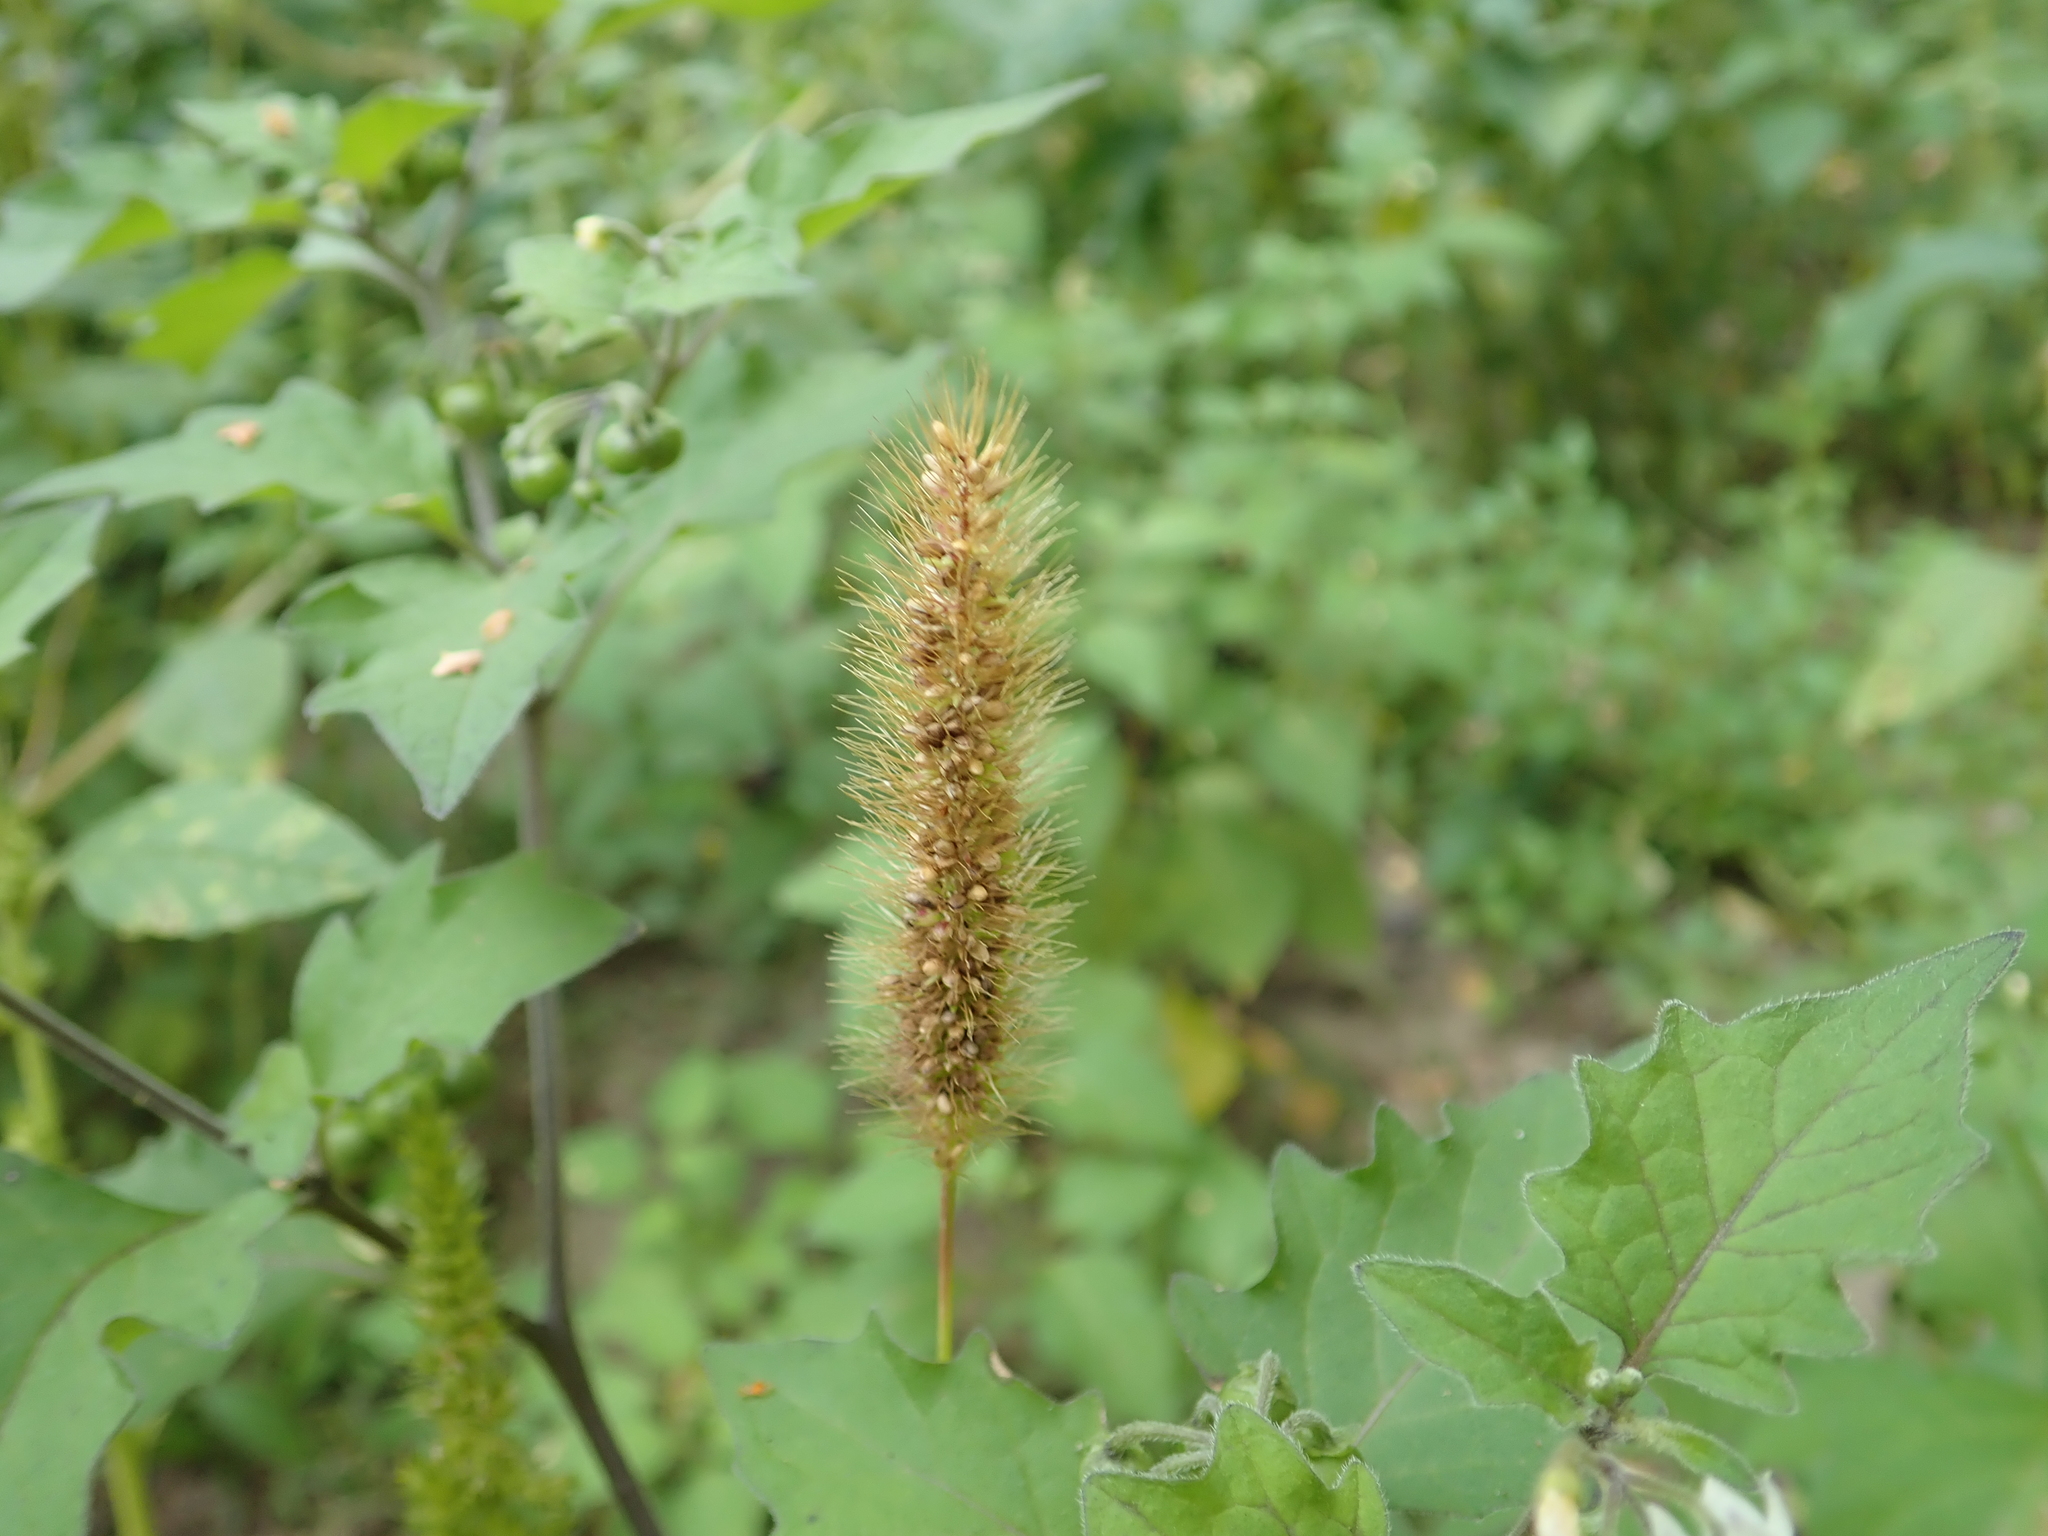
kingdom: Plantae
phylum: Tracheophyta
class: Liliopsida
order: Poales
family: Poaceae
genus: Setaria
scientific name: Setaria viridis
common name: Green bristlegrass
